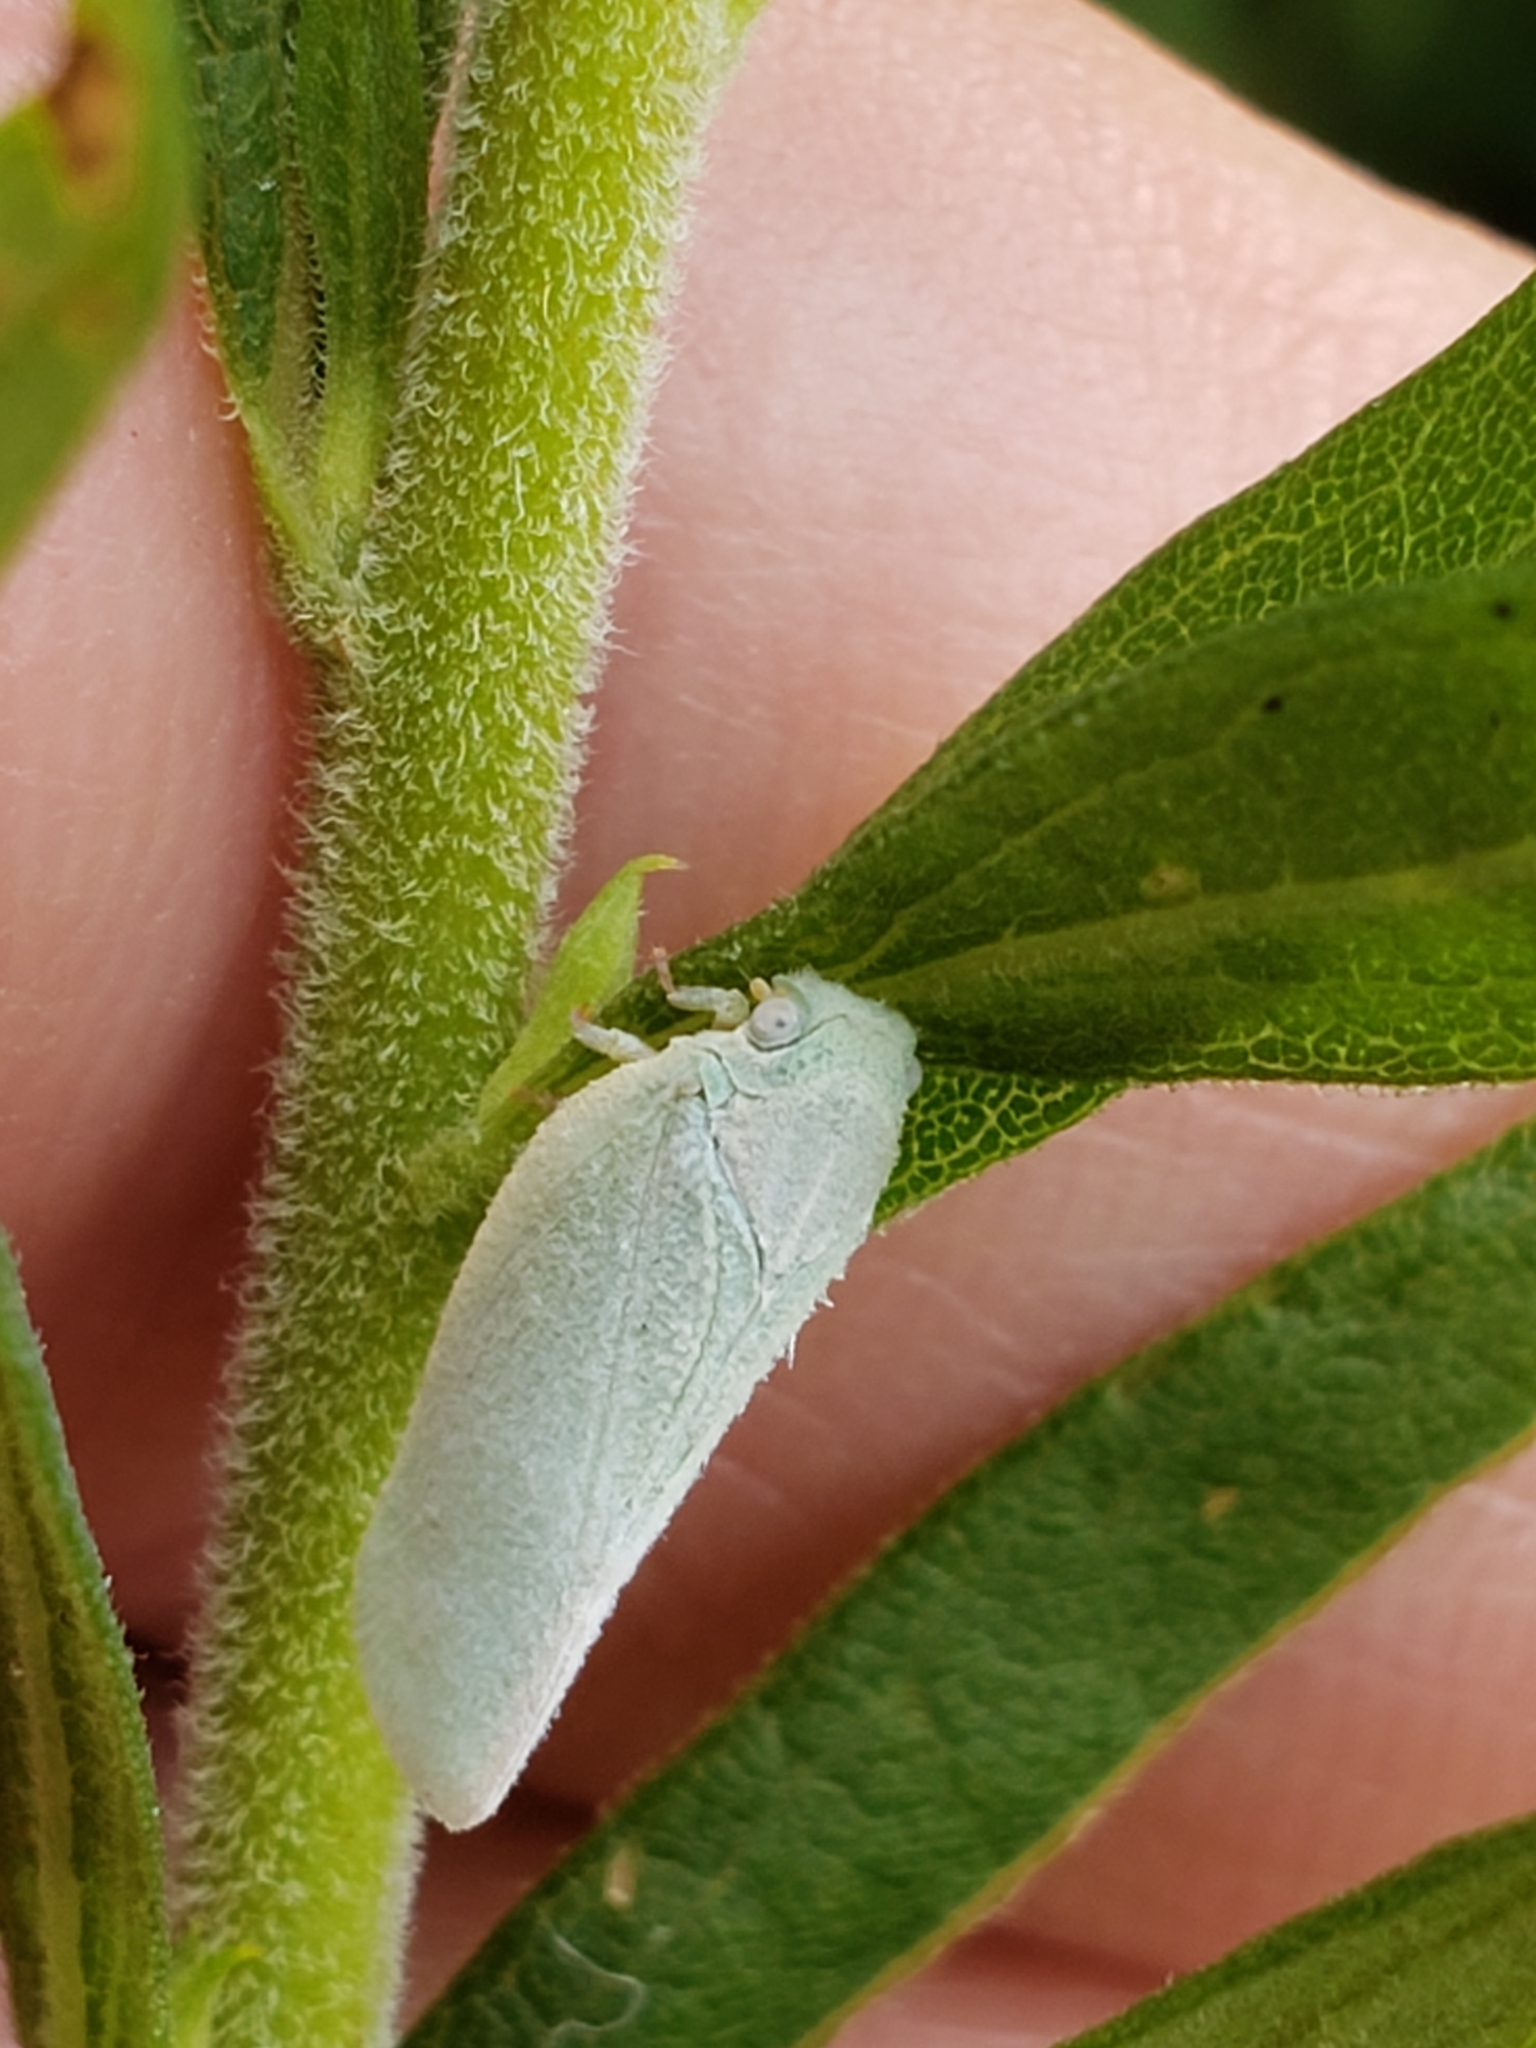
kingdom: Animalia
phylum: Arthropoda
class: Insecta
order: Hemiptera
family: Flatidae
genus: Flatormenis
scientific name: Flatormenis proxima
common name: Northern flatid planthopper
